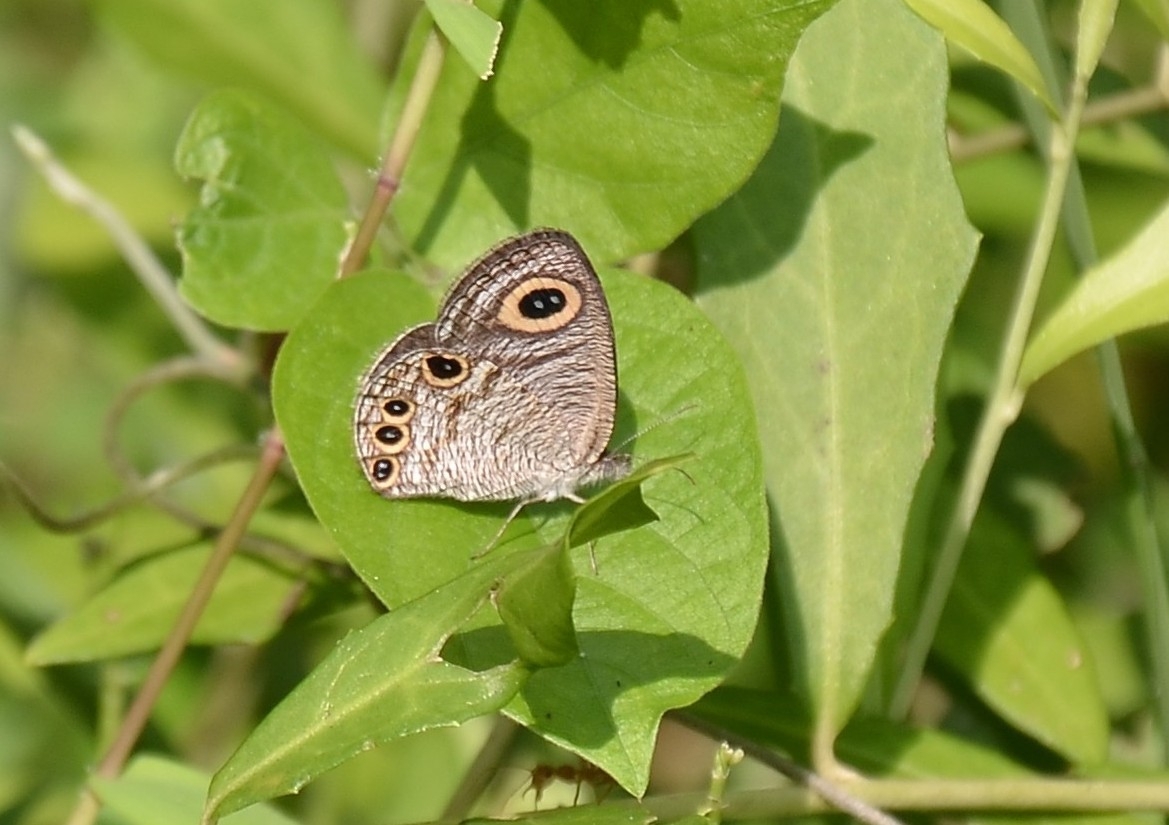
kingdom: Animalia
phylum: Arthropoda
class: Insecta
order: Lepidoptera
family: Nymphalidae
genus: Ypthima
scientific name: Ypthima huebneri
